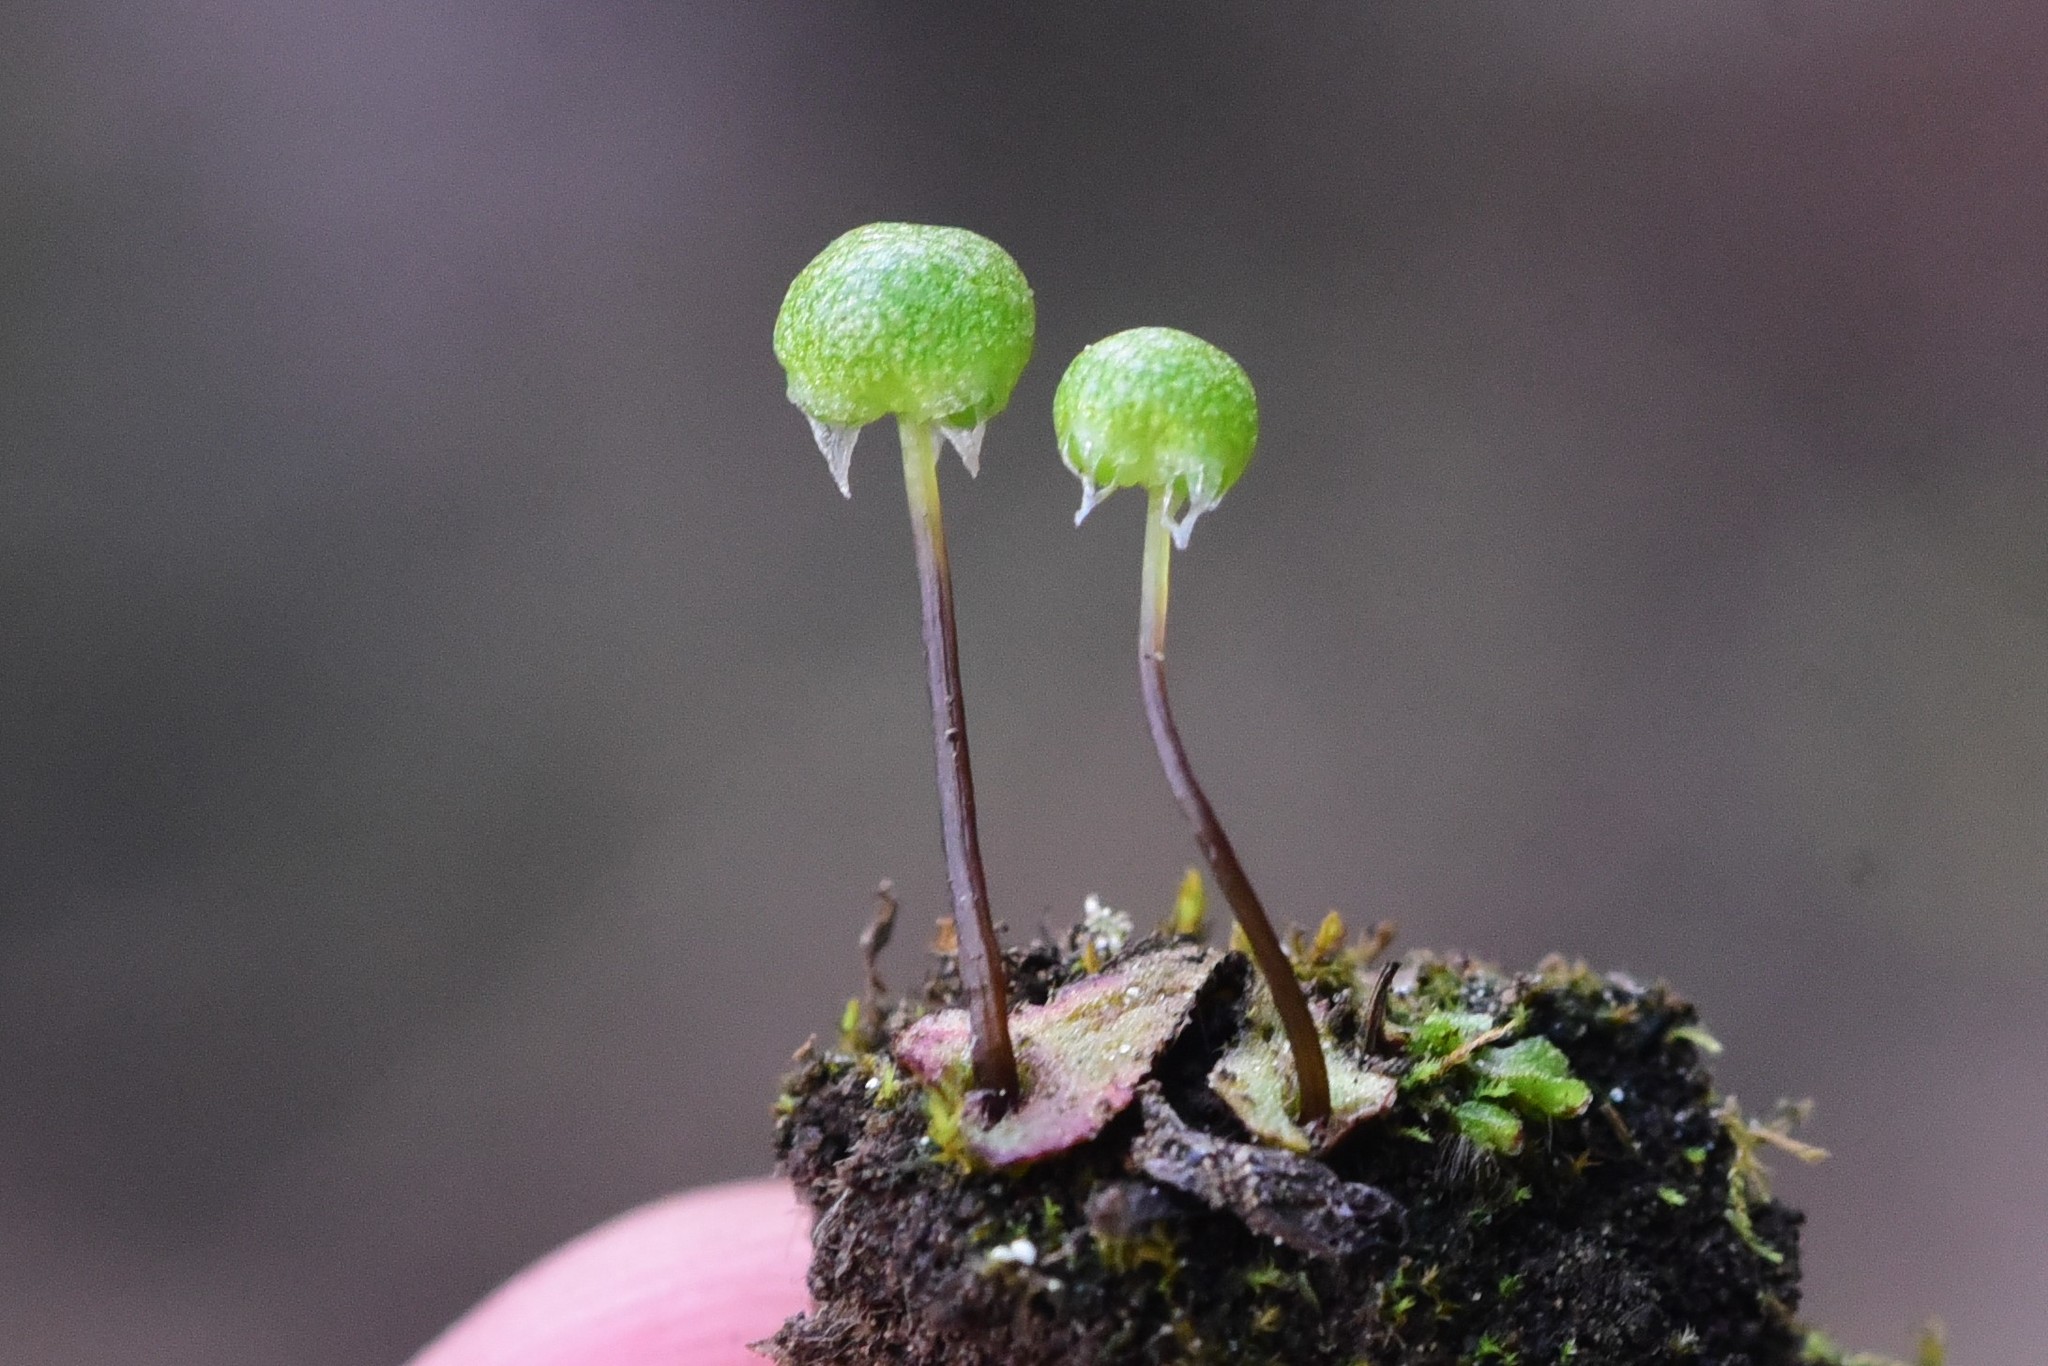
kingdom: Plantae
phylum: Marchantiophyta
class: Marchantiopsida
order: Marchantiales
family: Aytoniaceae
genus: Reboulia
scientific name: Reboulia hemisphaerica
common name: Purple-margined liverwort
